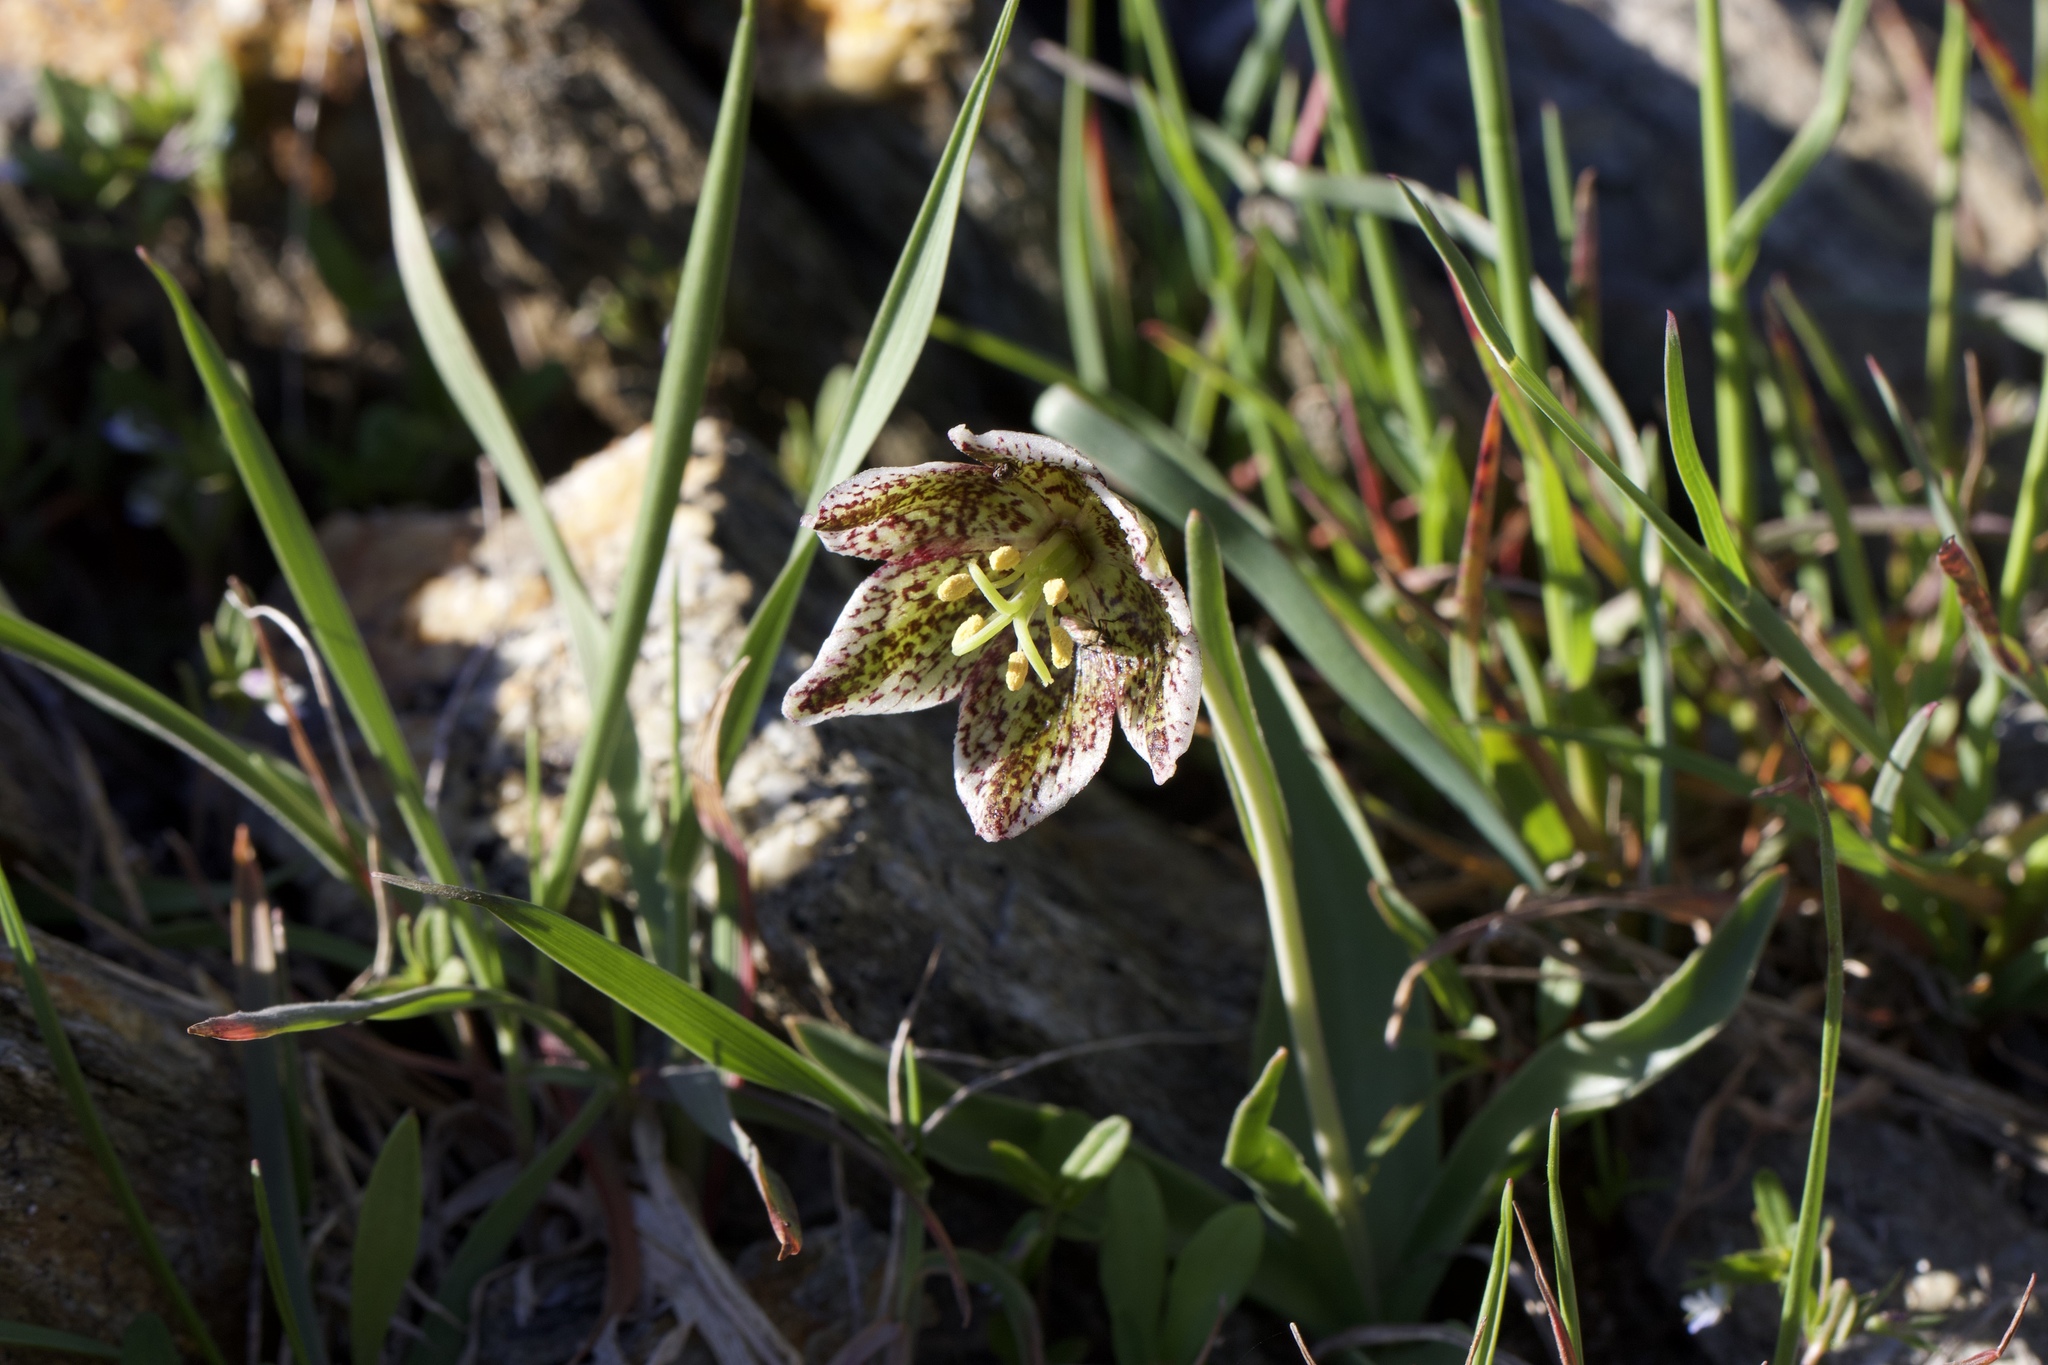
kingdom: Plantae
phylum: Tracheophyta
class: Liliopsida
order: Liliales
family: Liliaceae
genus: Fritillaria
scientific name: Fritillaria purdyi
